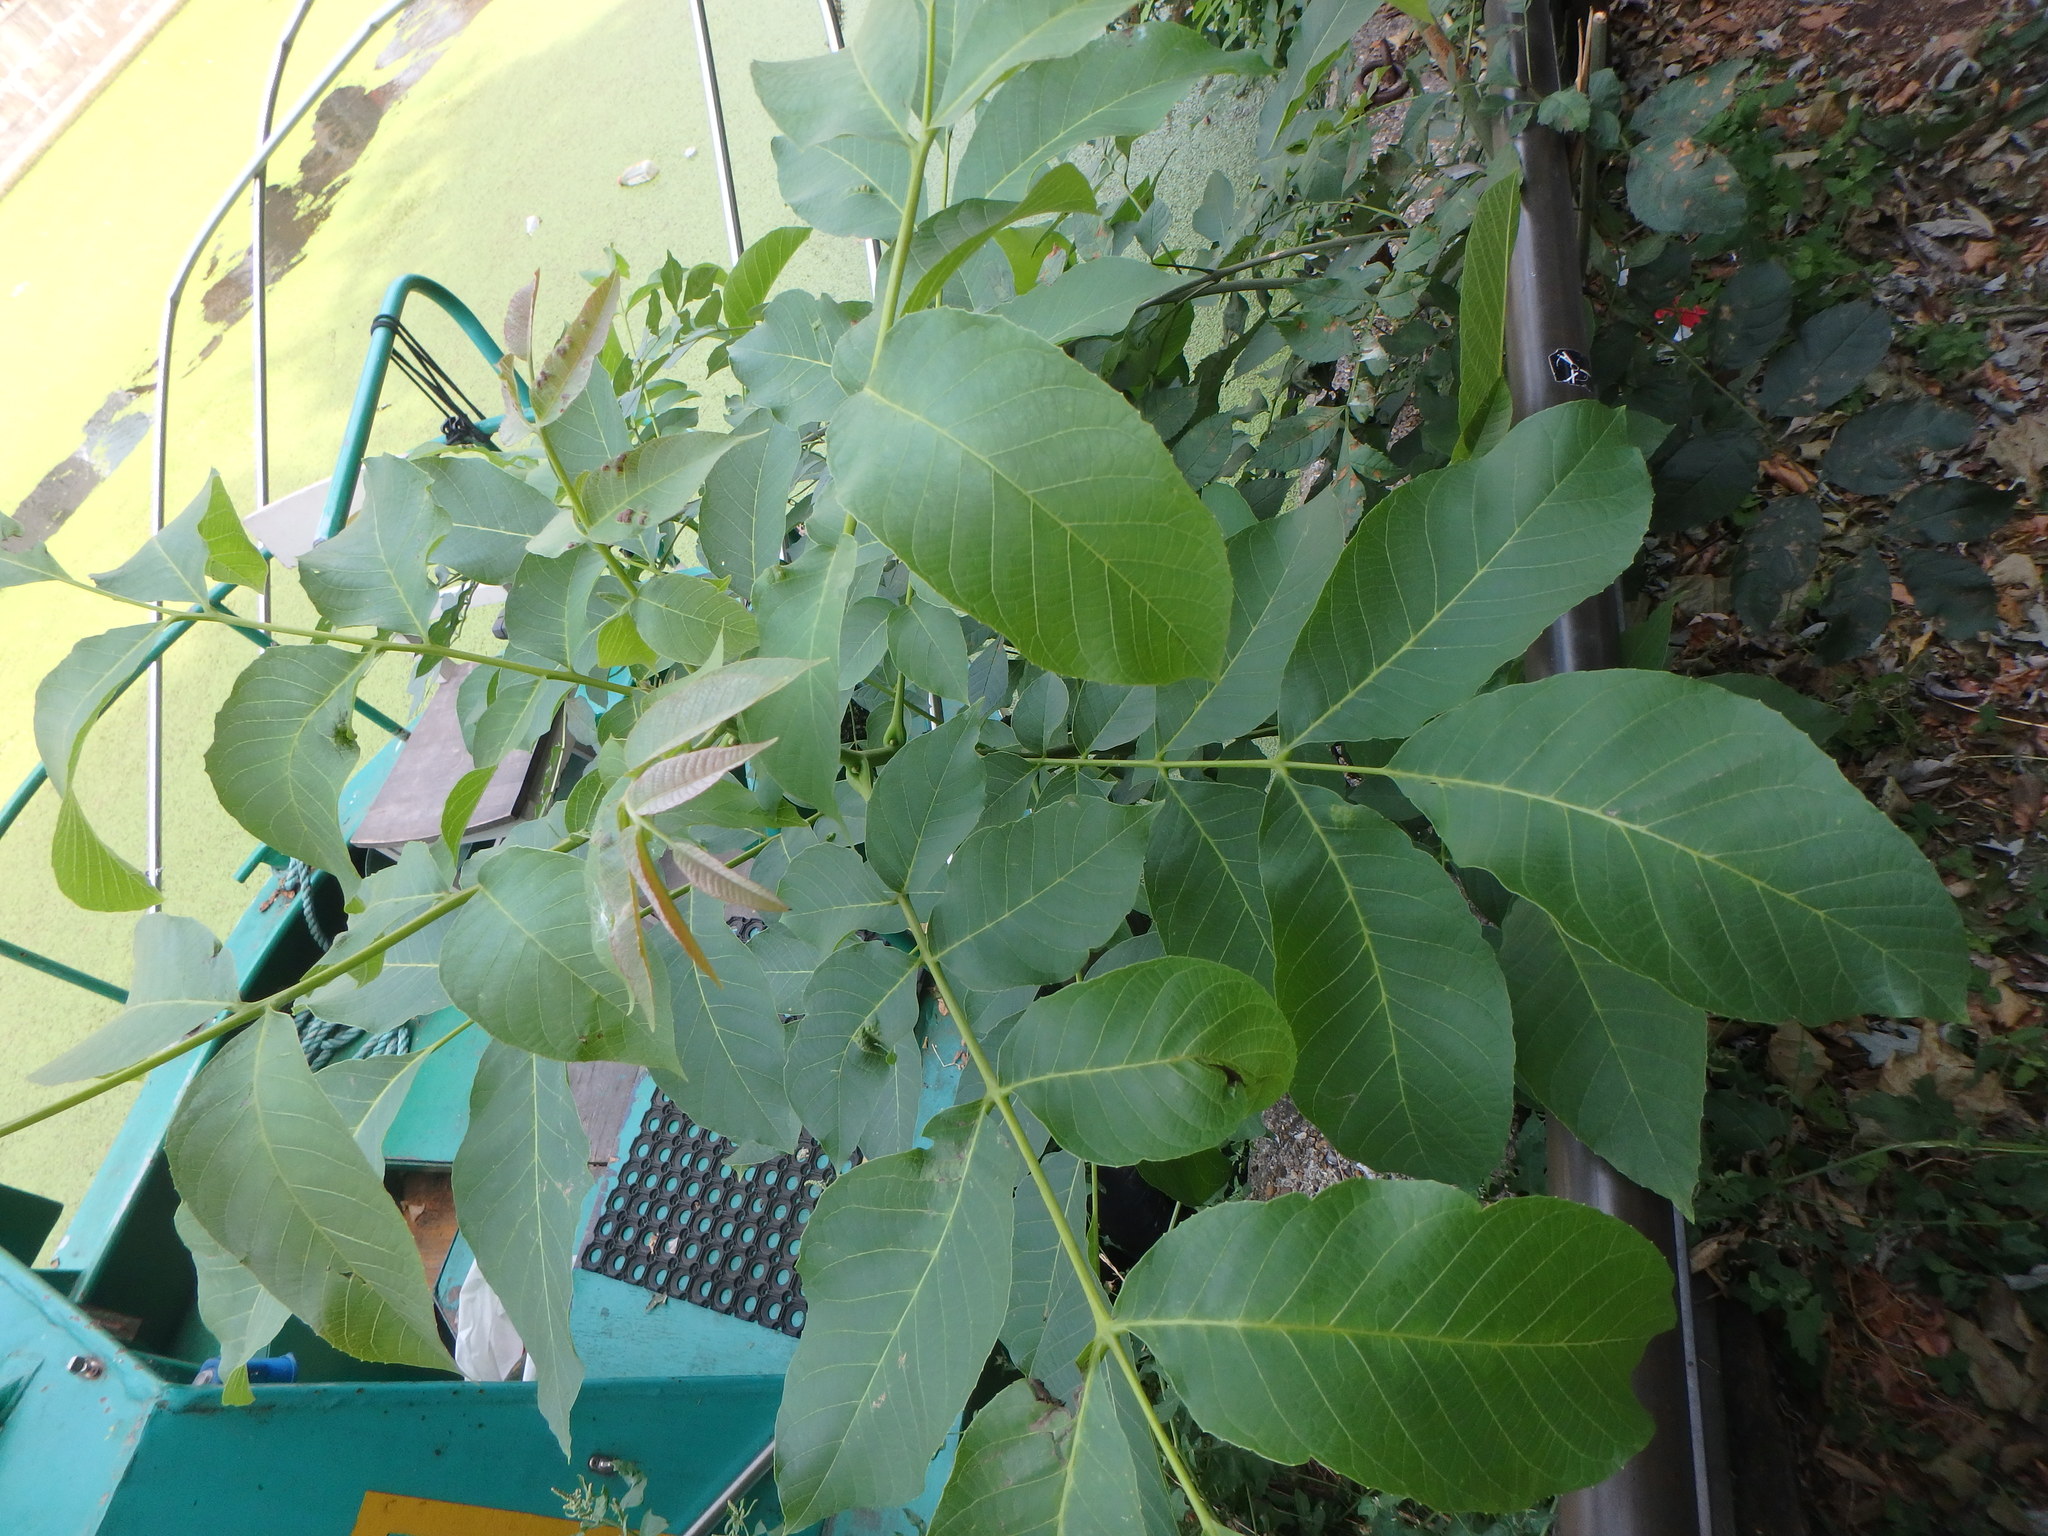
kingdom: Plantae
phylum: Tracheophyta
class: Magnoliopsida
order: Fagales
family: Juglandaceae
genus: Juglans
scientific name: Juglans regia
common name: Walnut
